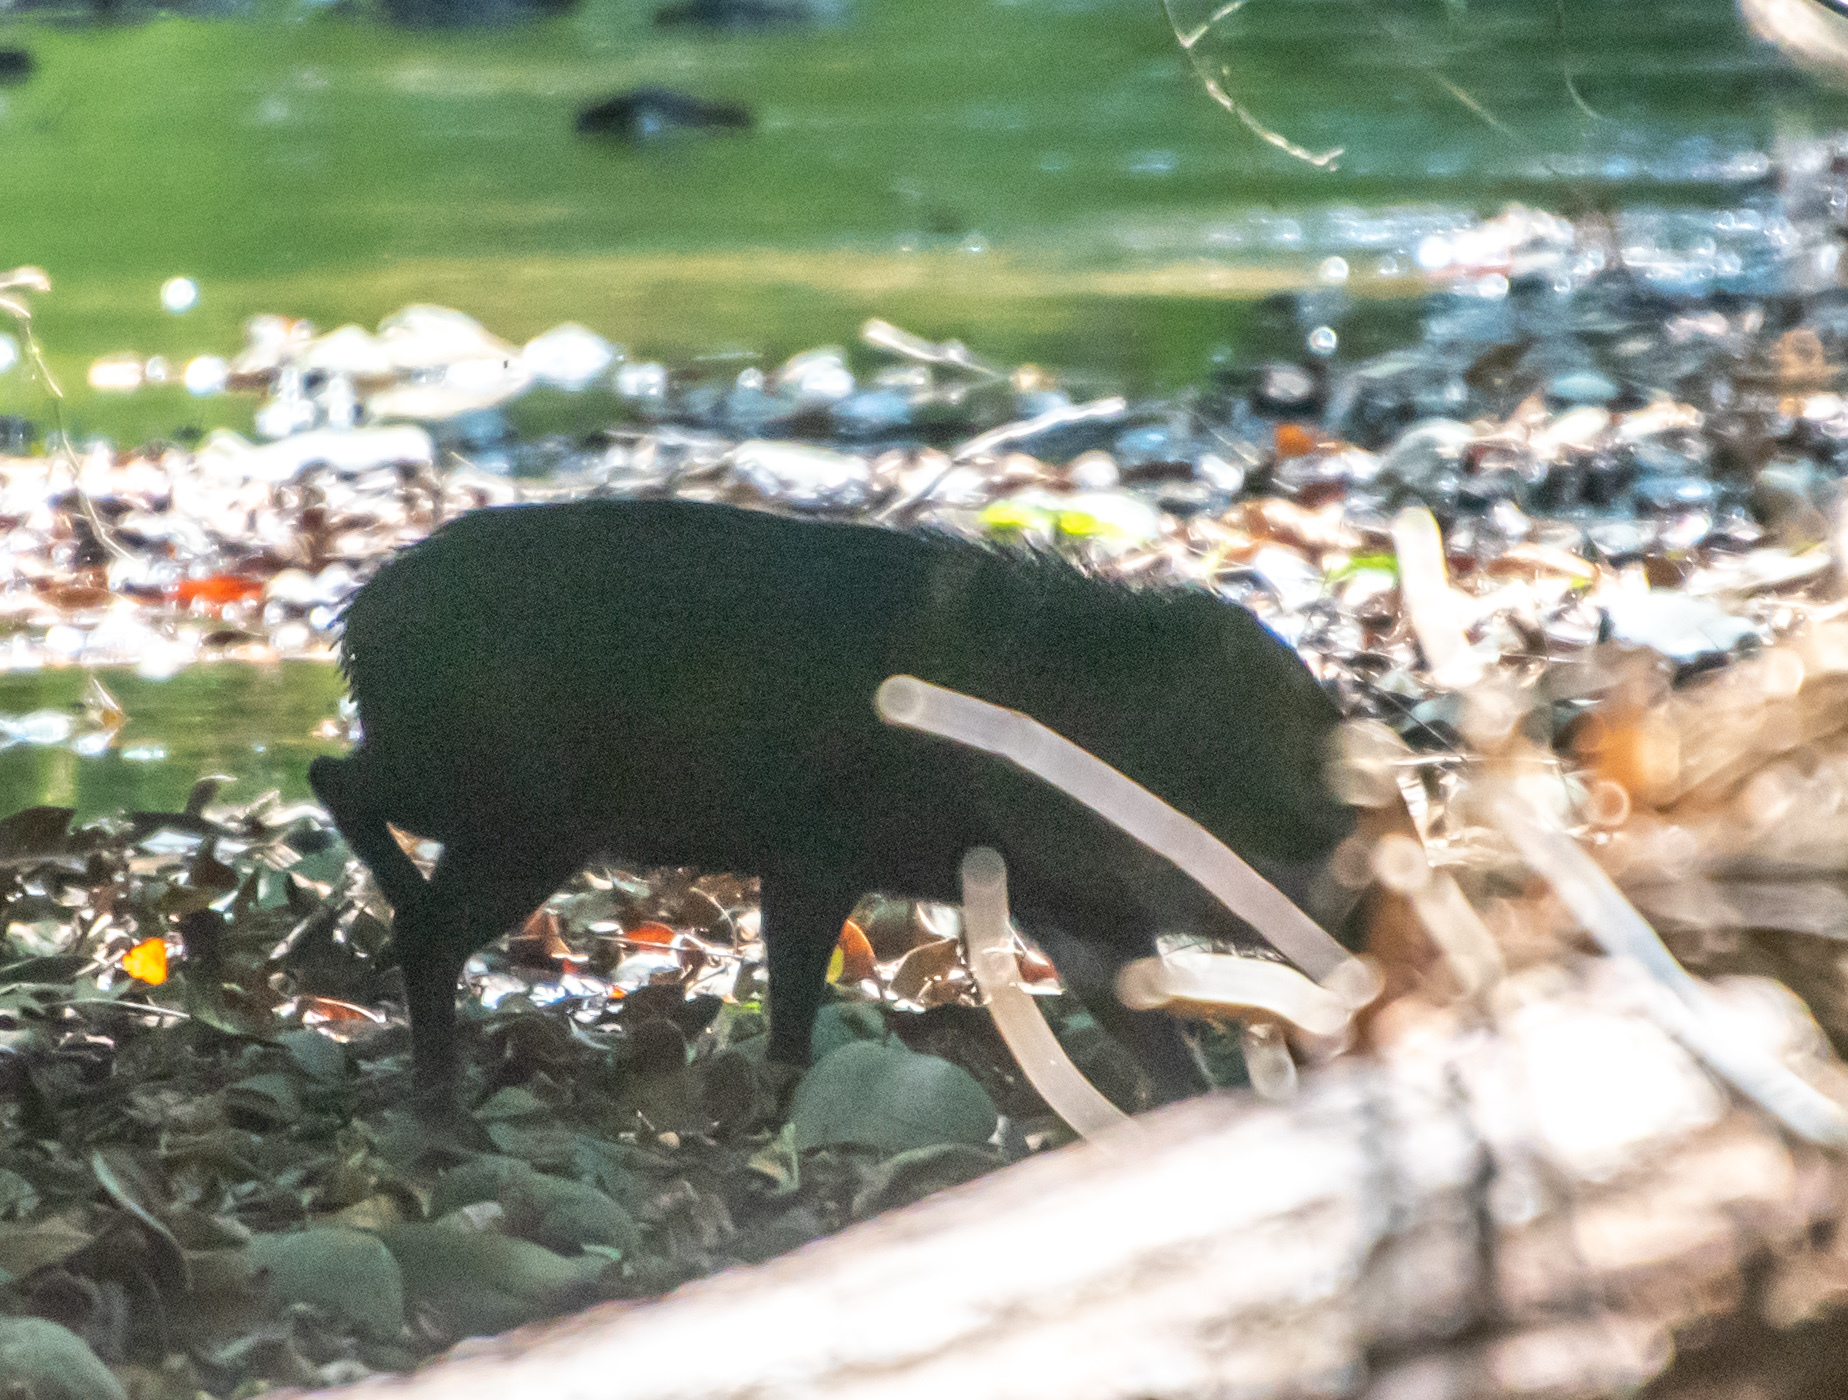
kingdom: Animalia
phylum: Chordata
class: Mammalia
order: Artiodactyla
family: Tayassuidae
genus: Pecari
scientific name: Pecari tajacu
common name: Collared peccary
